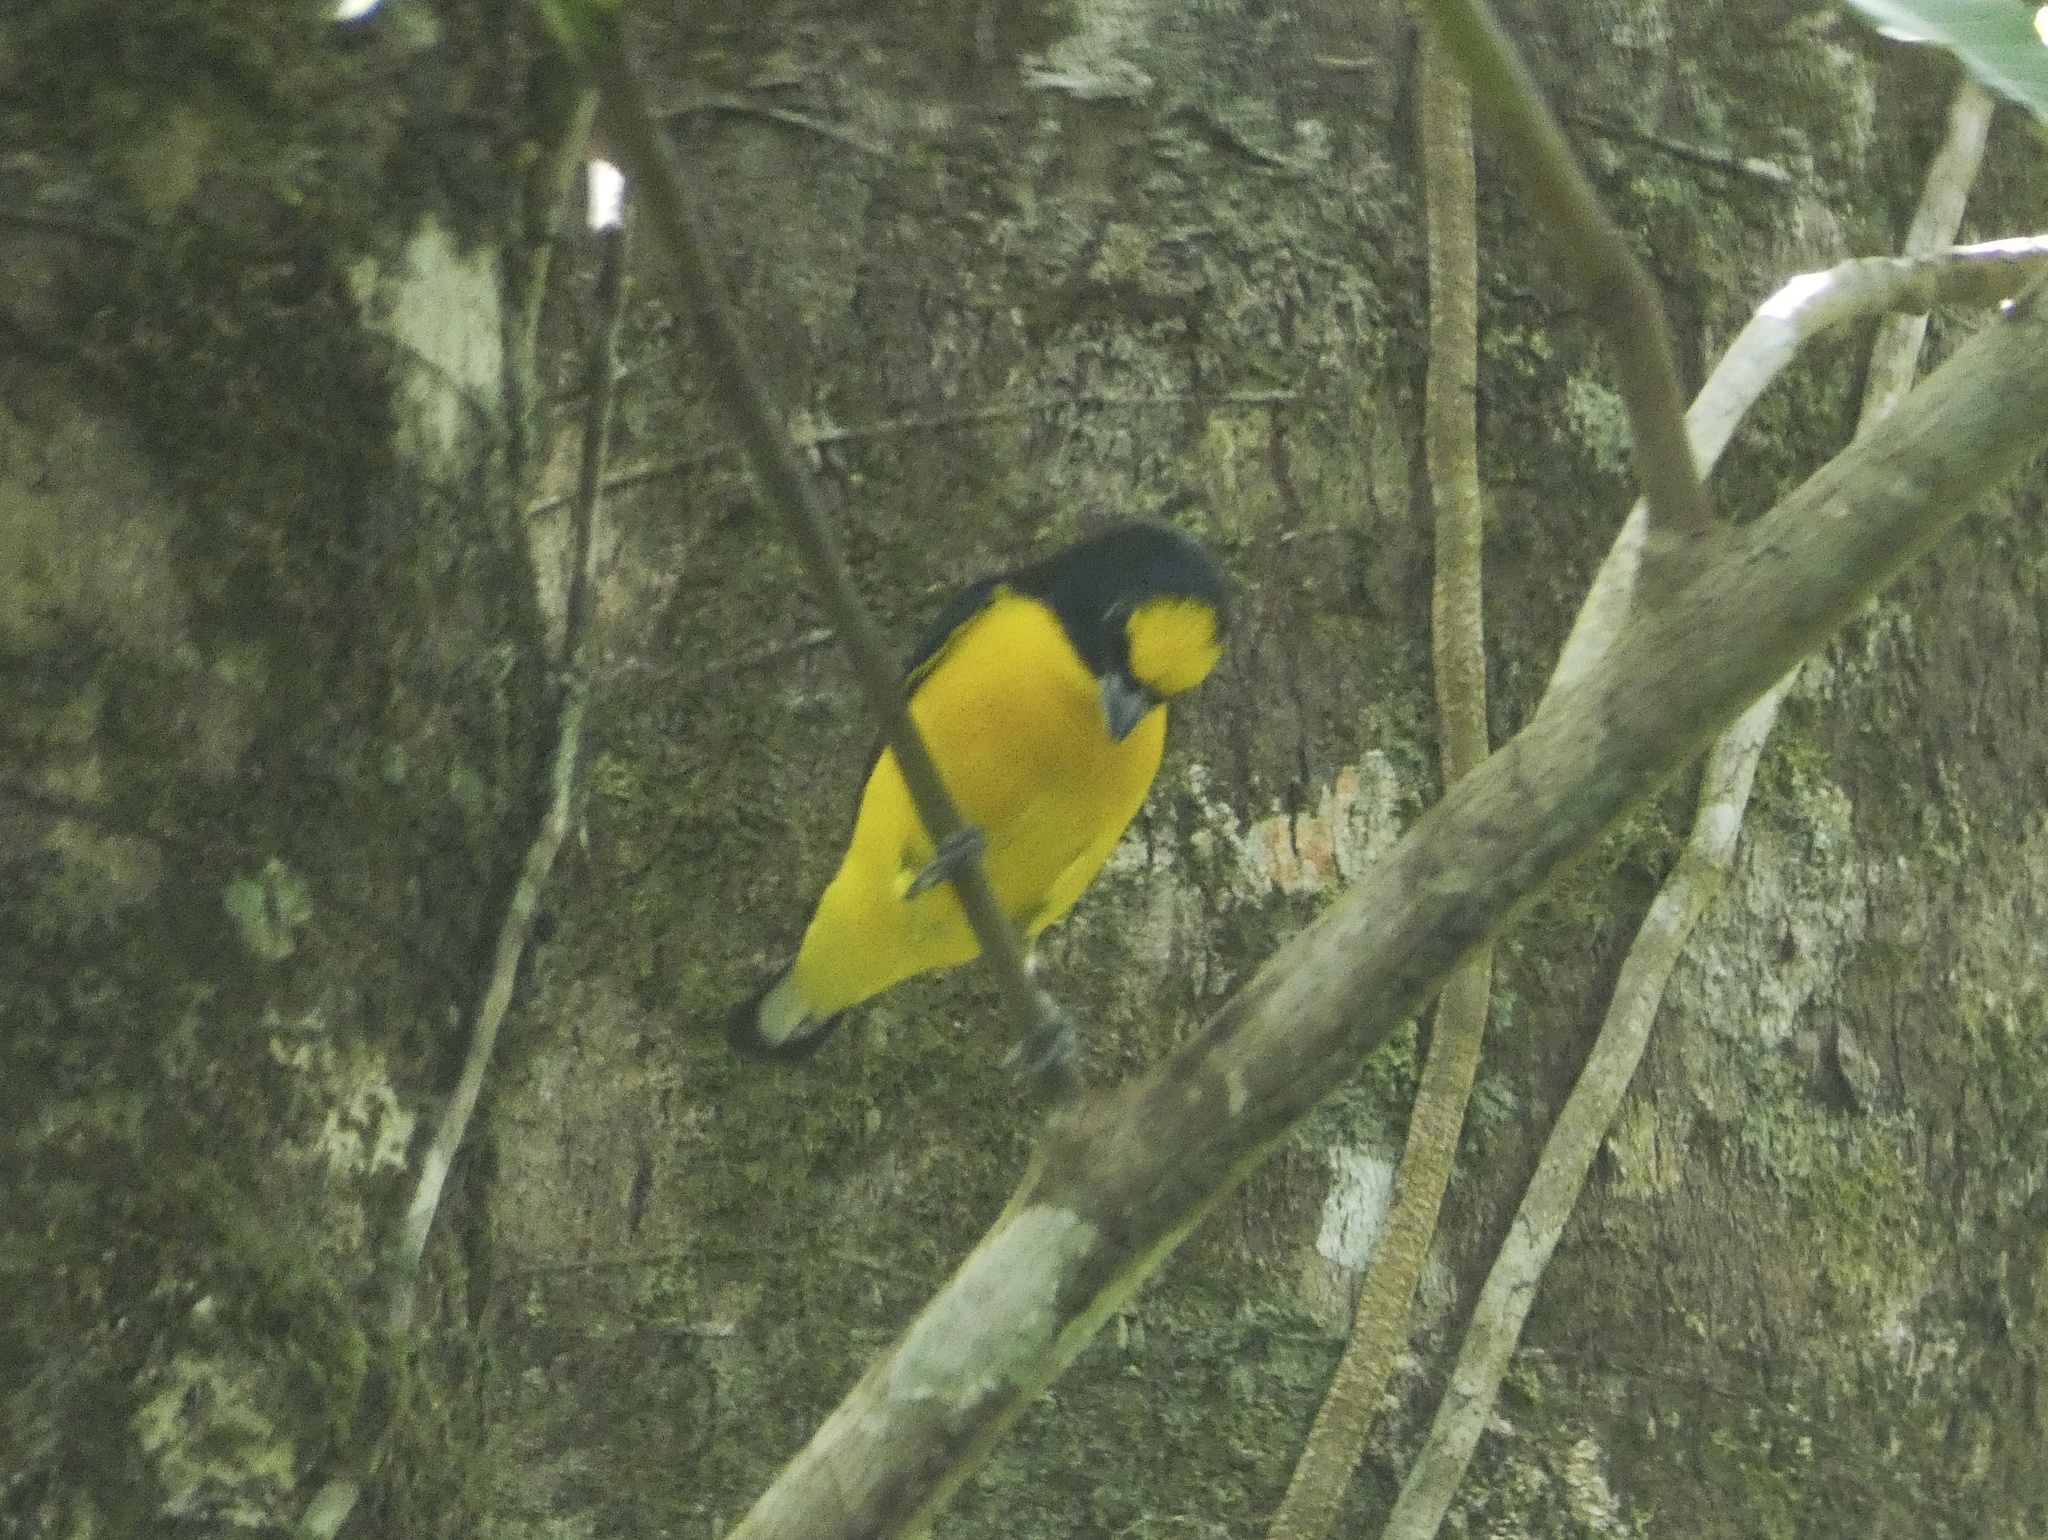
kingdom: Animalia
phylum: Chordata
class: Aves
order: Passeriformes
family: Fringillidae
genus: Euphonia
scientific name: Euphonia laniirostris
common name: Thick-billed euphonia
